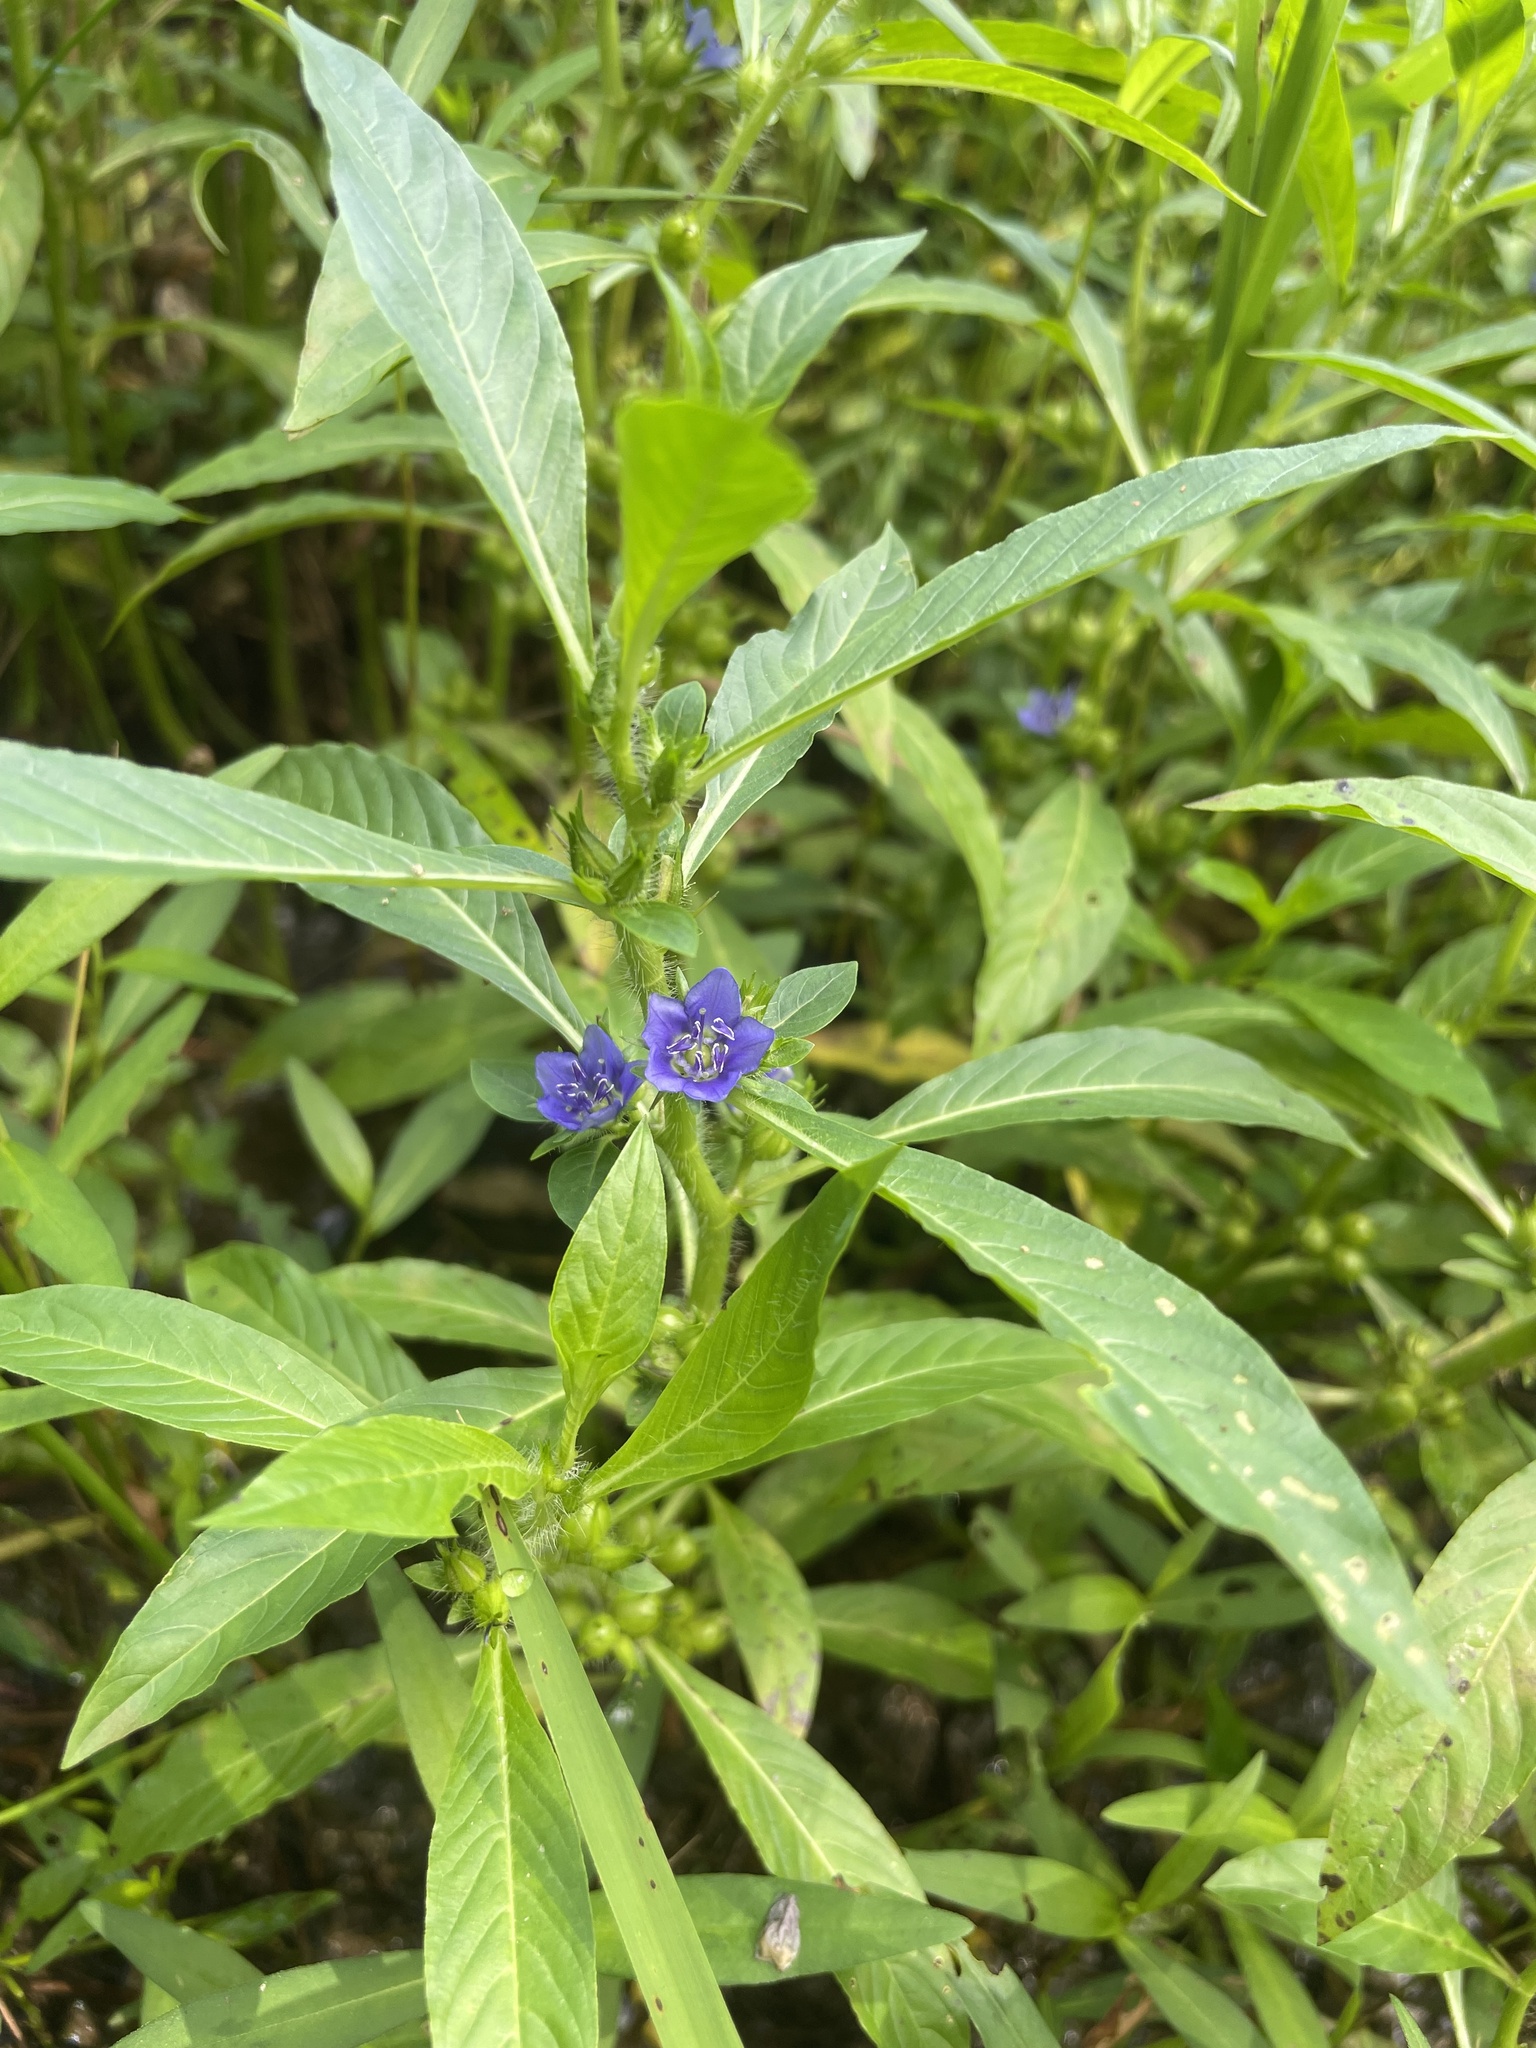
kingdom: Plantae
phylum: Tracheophyta
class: Magnoliopsida
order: Solanales
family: Hydroleaceae
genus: Hydrolea
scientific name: Hydrolea quadrivalvis
